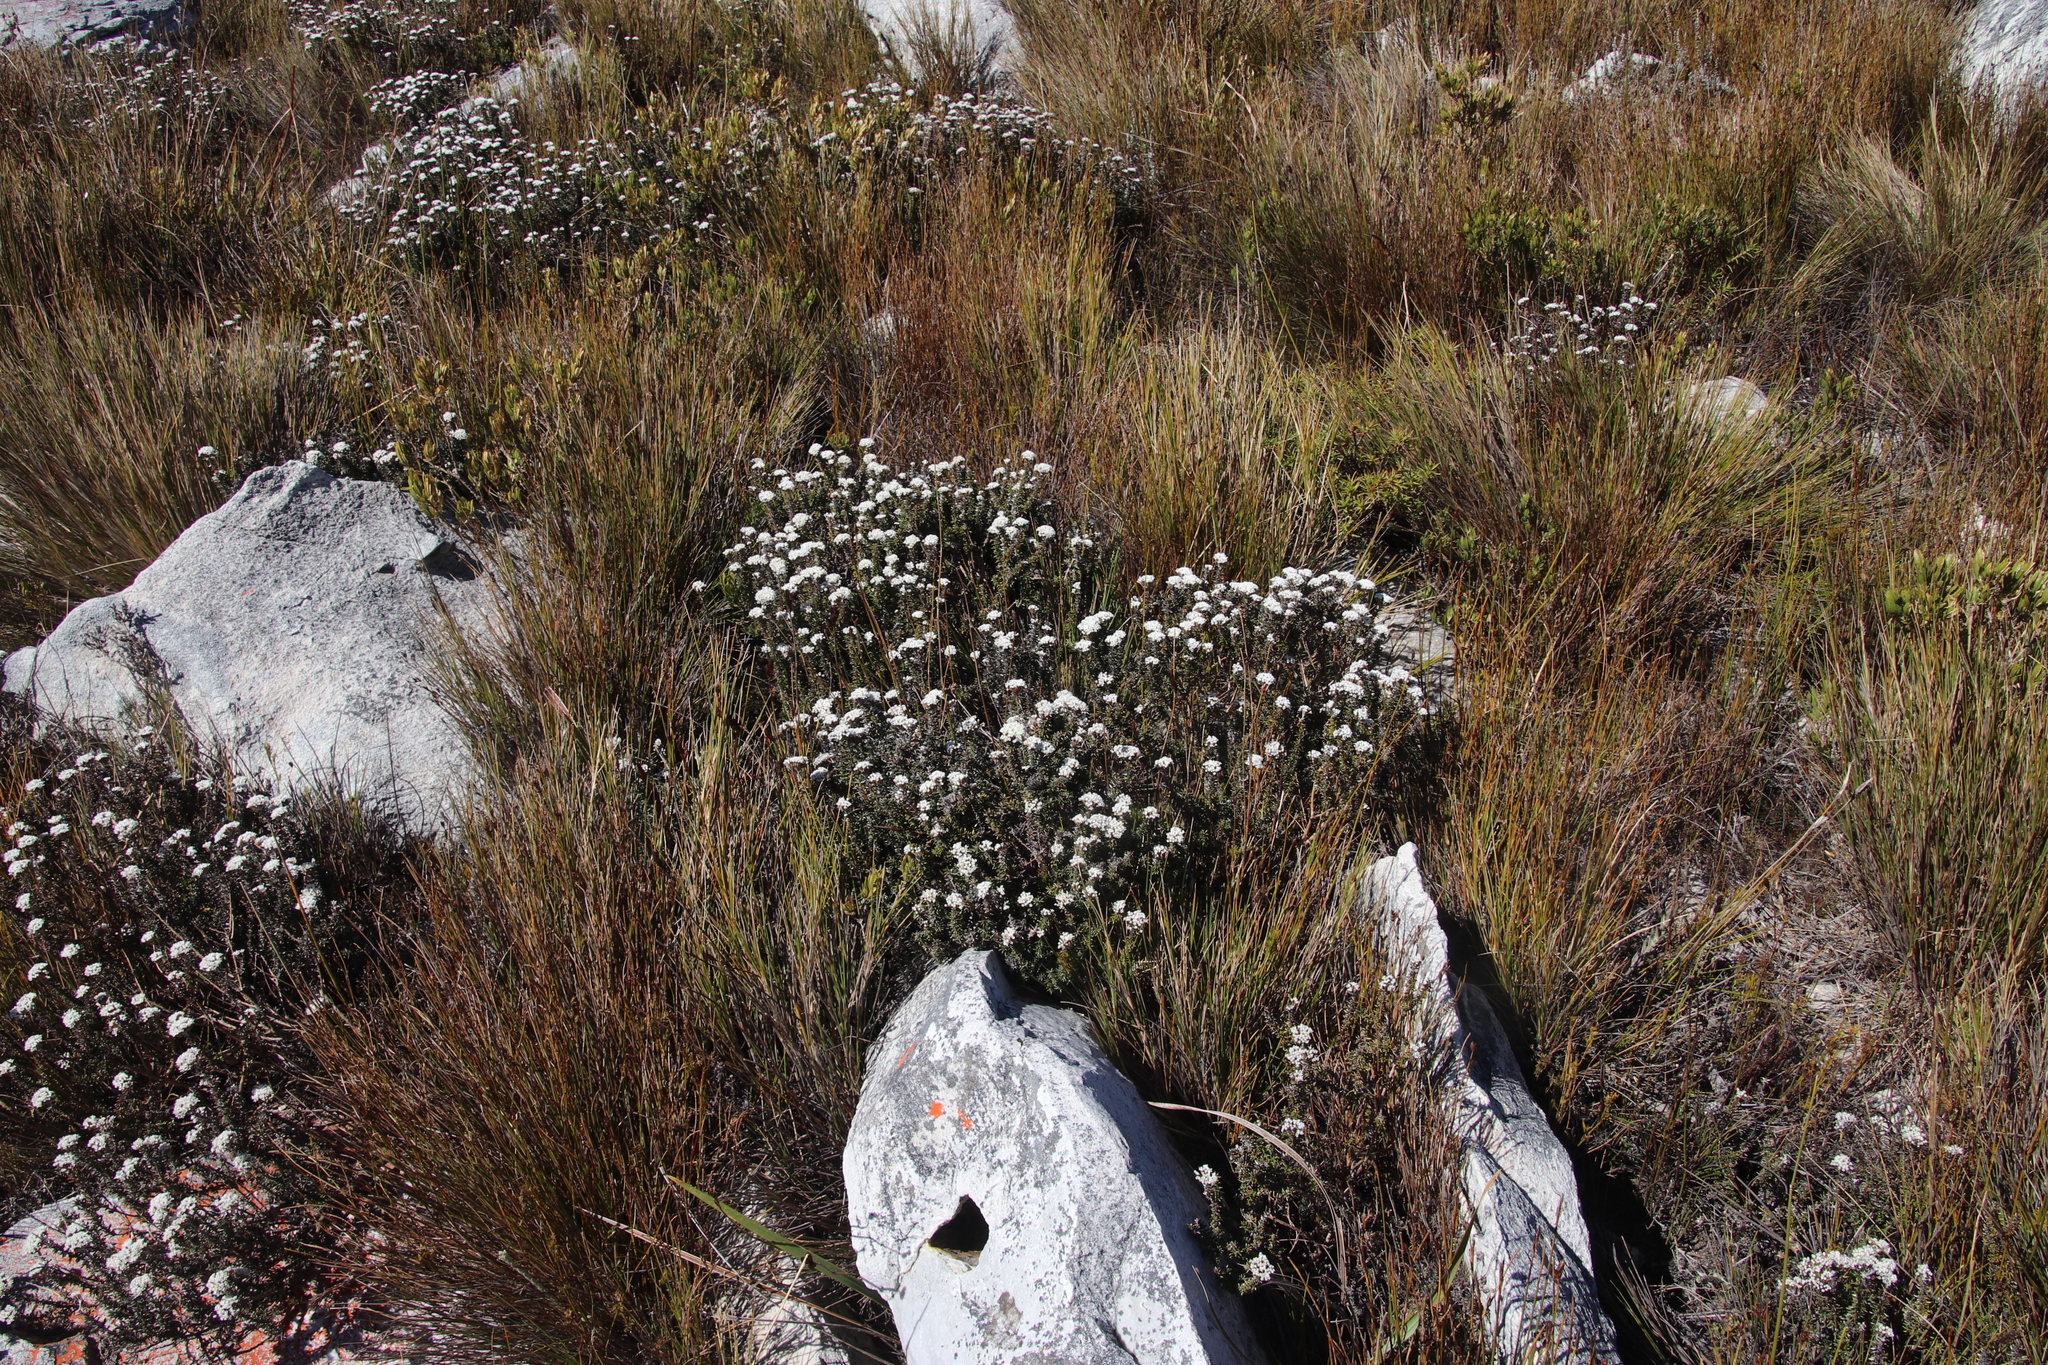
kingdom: Plantae
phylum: Tracheophyta
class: Magnoliopsida
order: Asterales
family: Asteraceae
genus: Metalasia
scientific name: Metalasia montana
